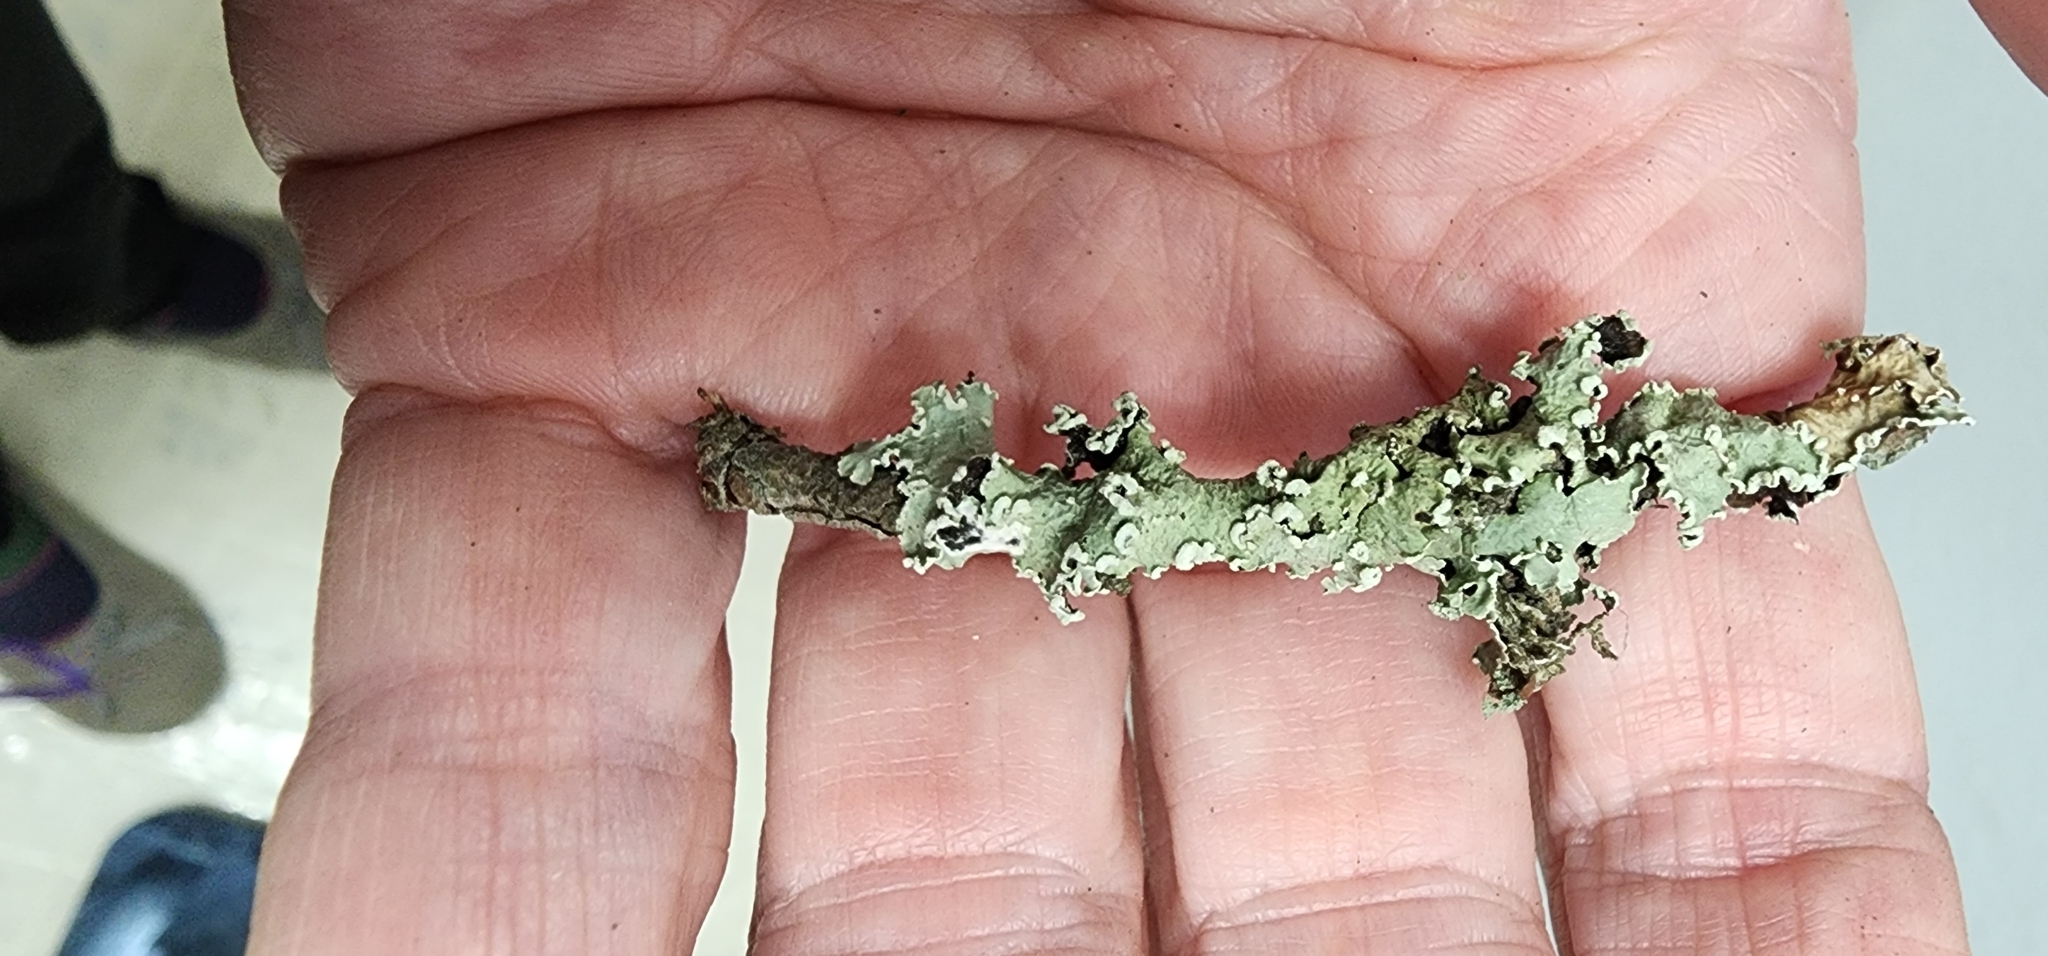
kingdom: Fungi
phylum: Ascomycota
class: Lecanoromycetes
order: Lecanorales
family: Parmeliaceae
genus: Flavopunctelia
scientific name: Flavopunctelia soredica
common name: Powder-edged speckled greenshield
